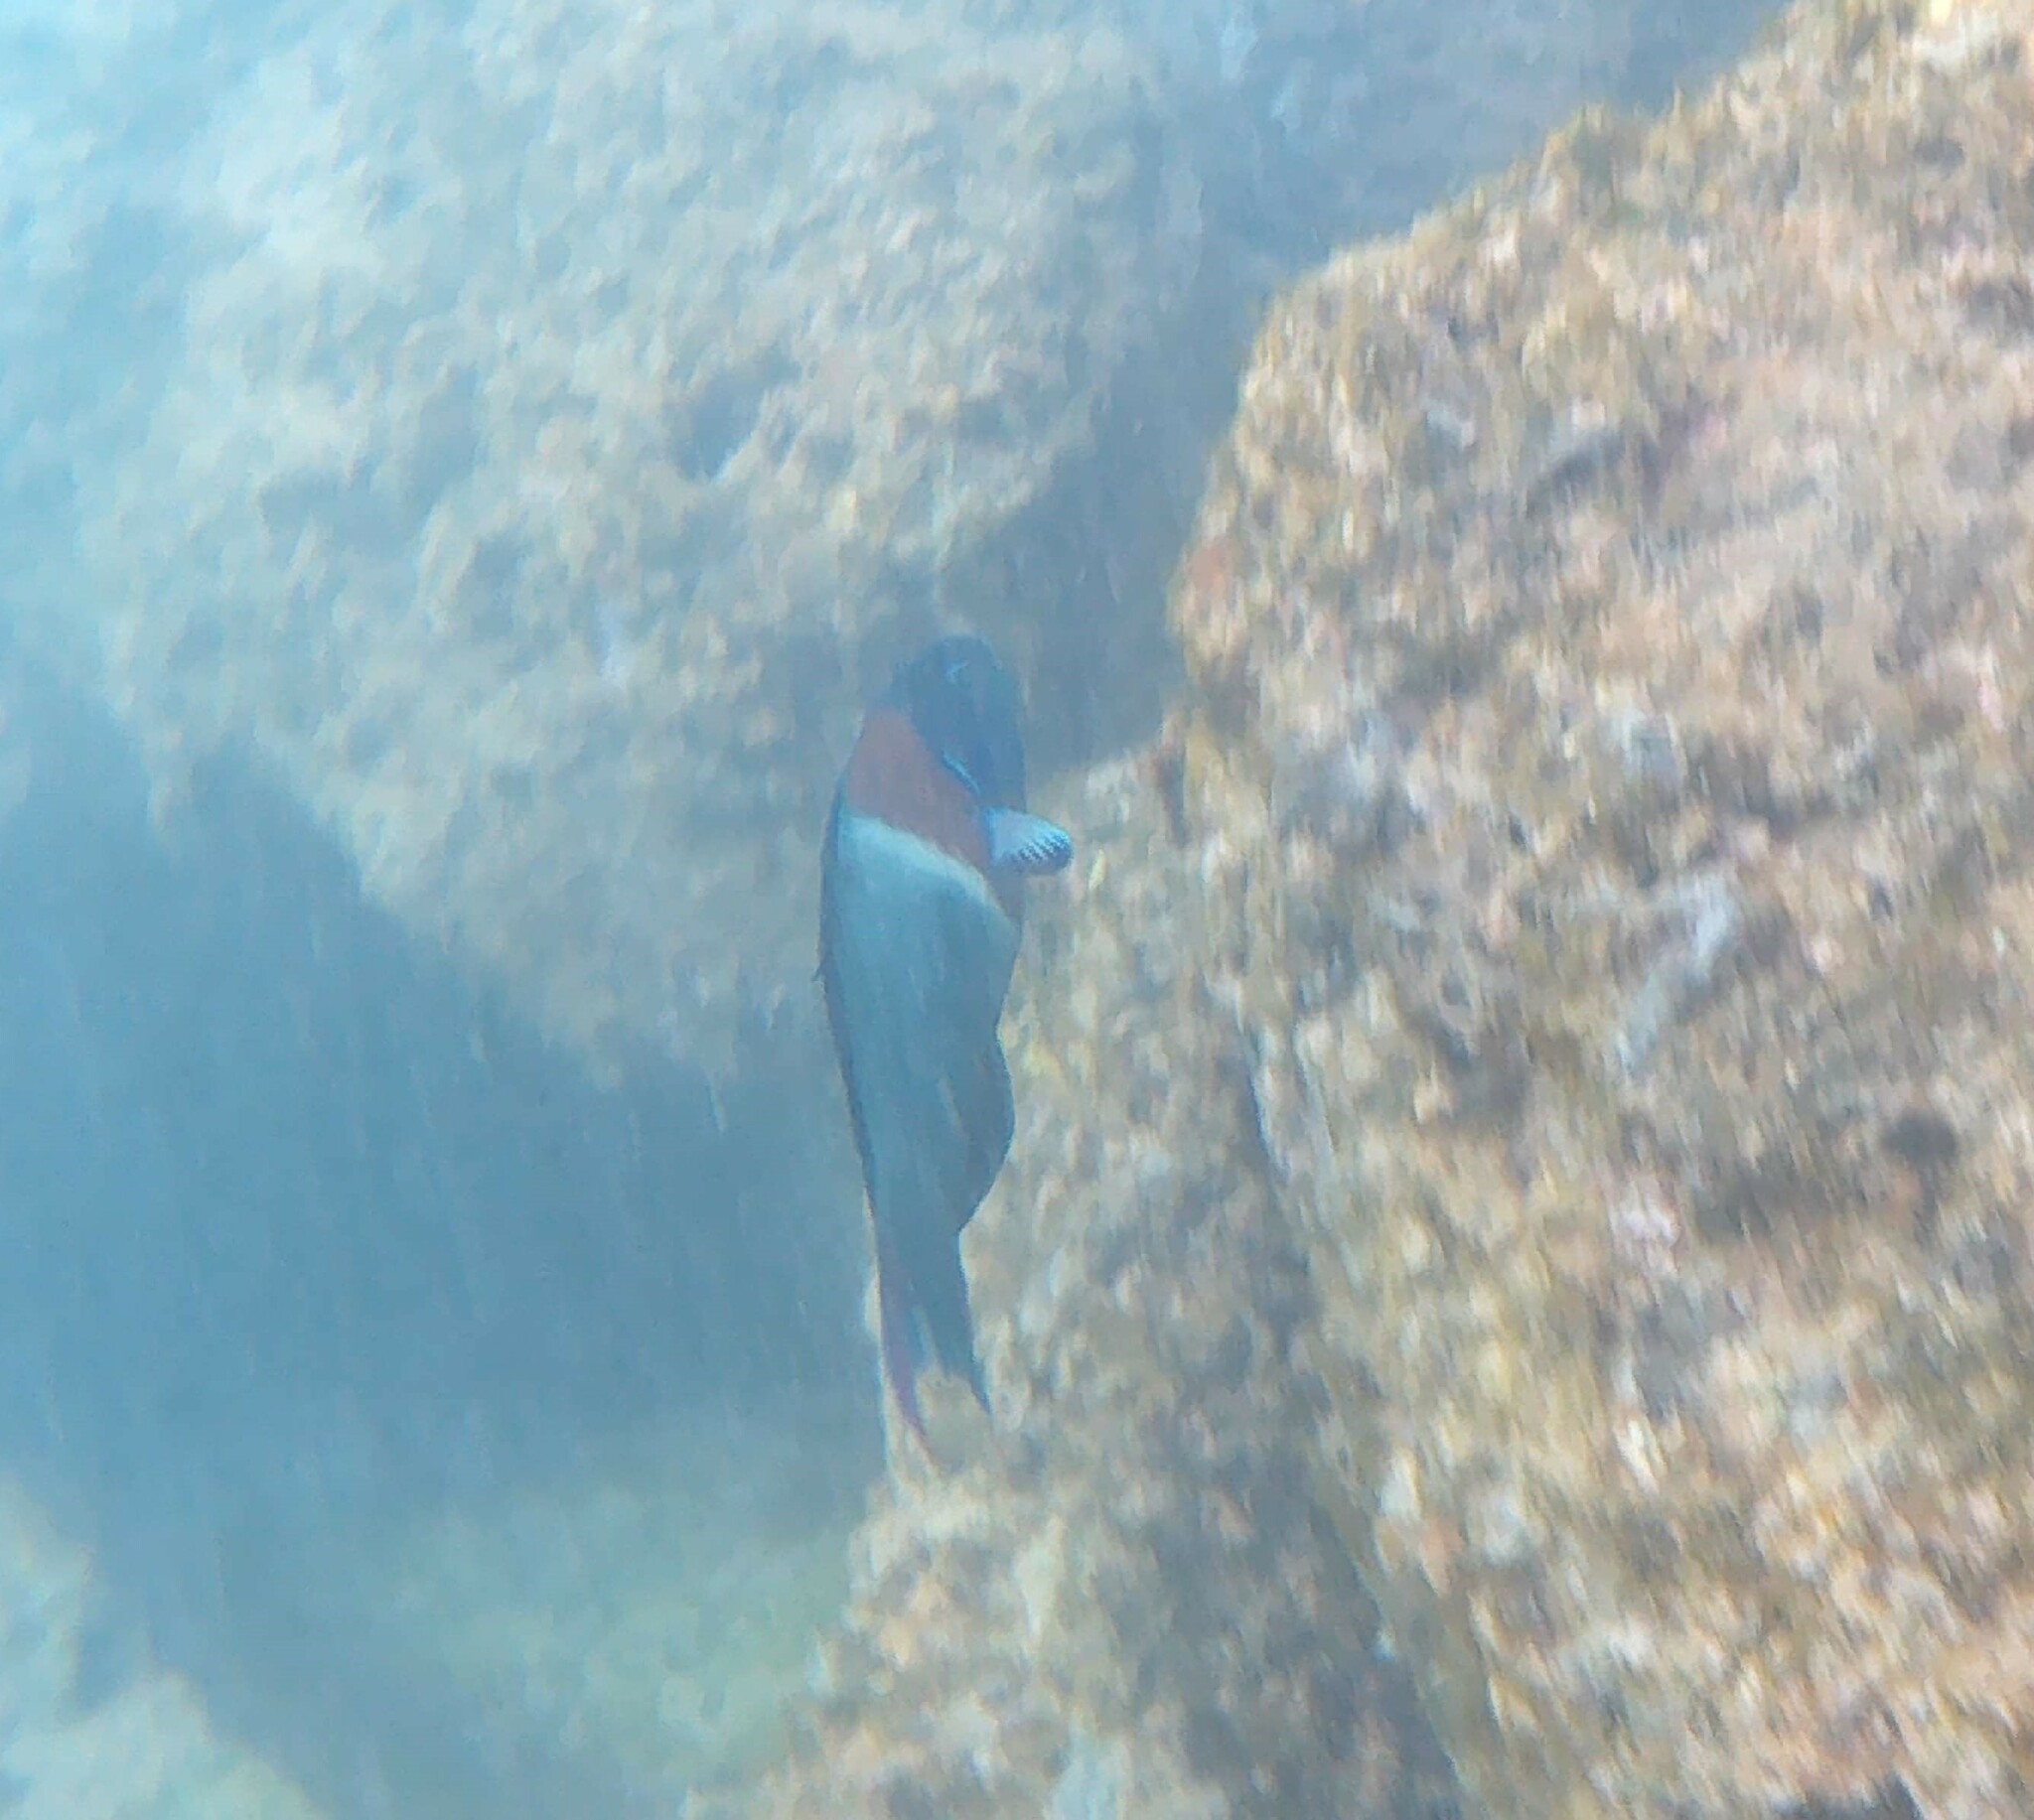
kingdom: Animalia
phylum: Chordata
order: Perciformes
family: Labridae
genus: Thalassoma
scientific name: Thalassoma duperrey
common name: Saddle wrasse
